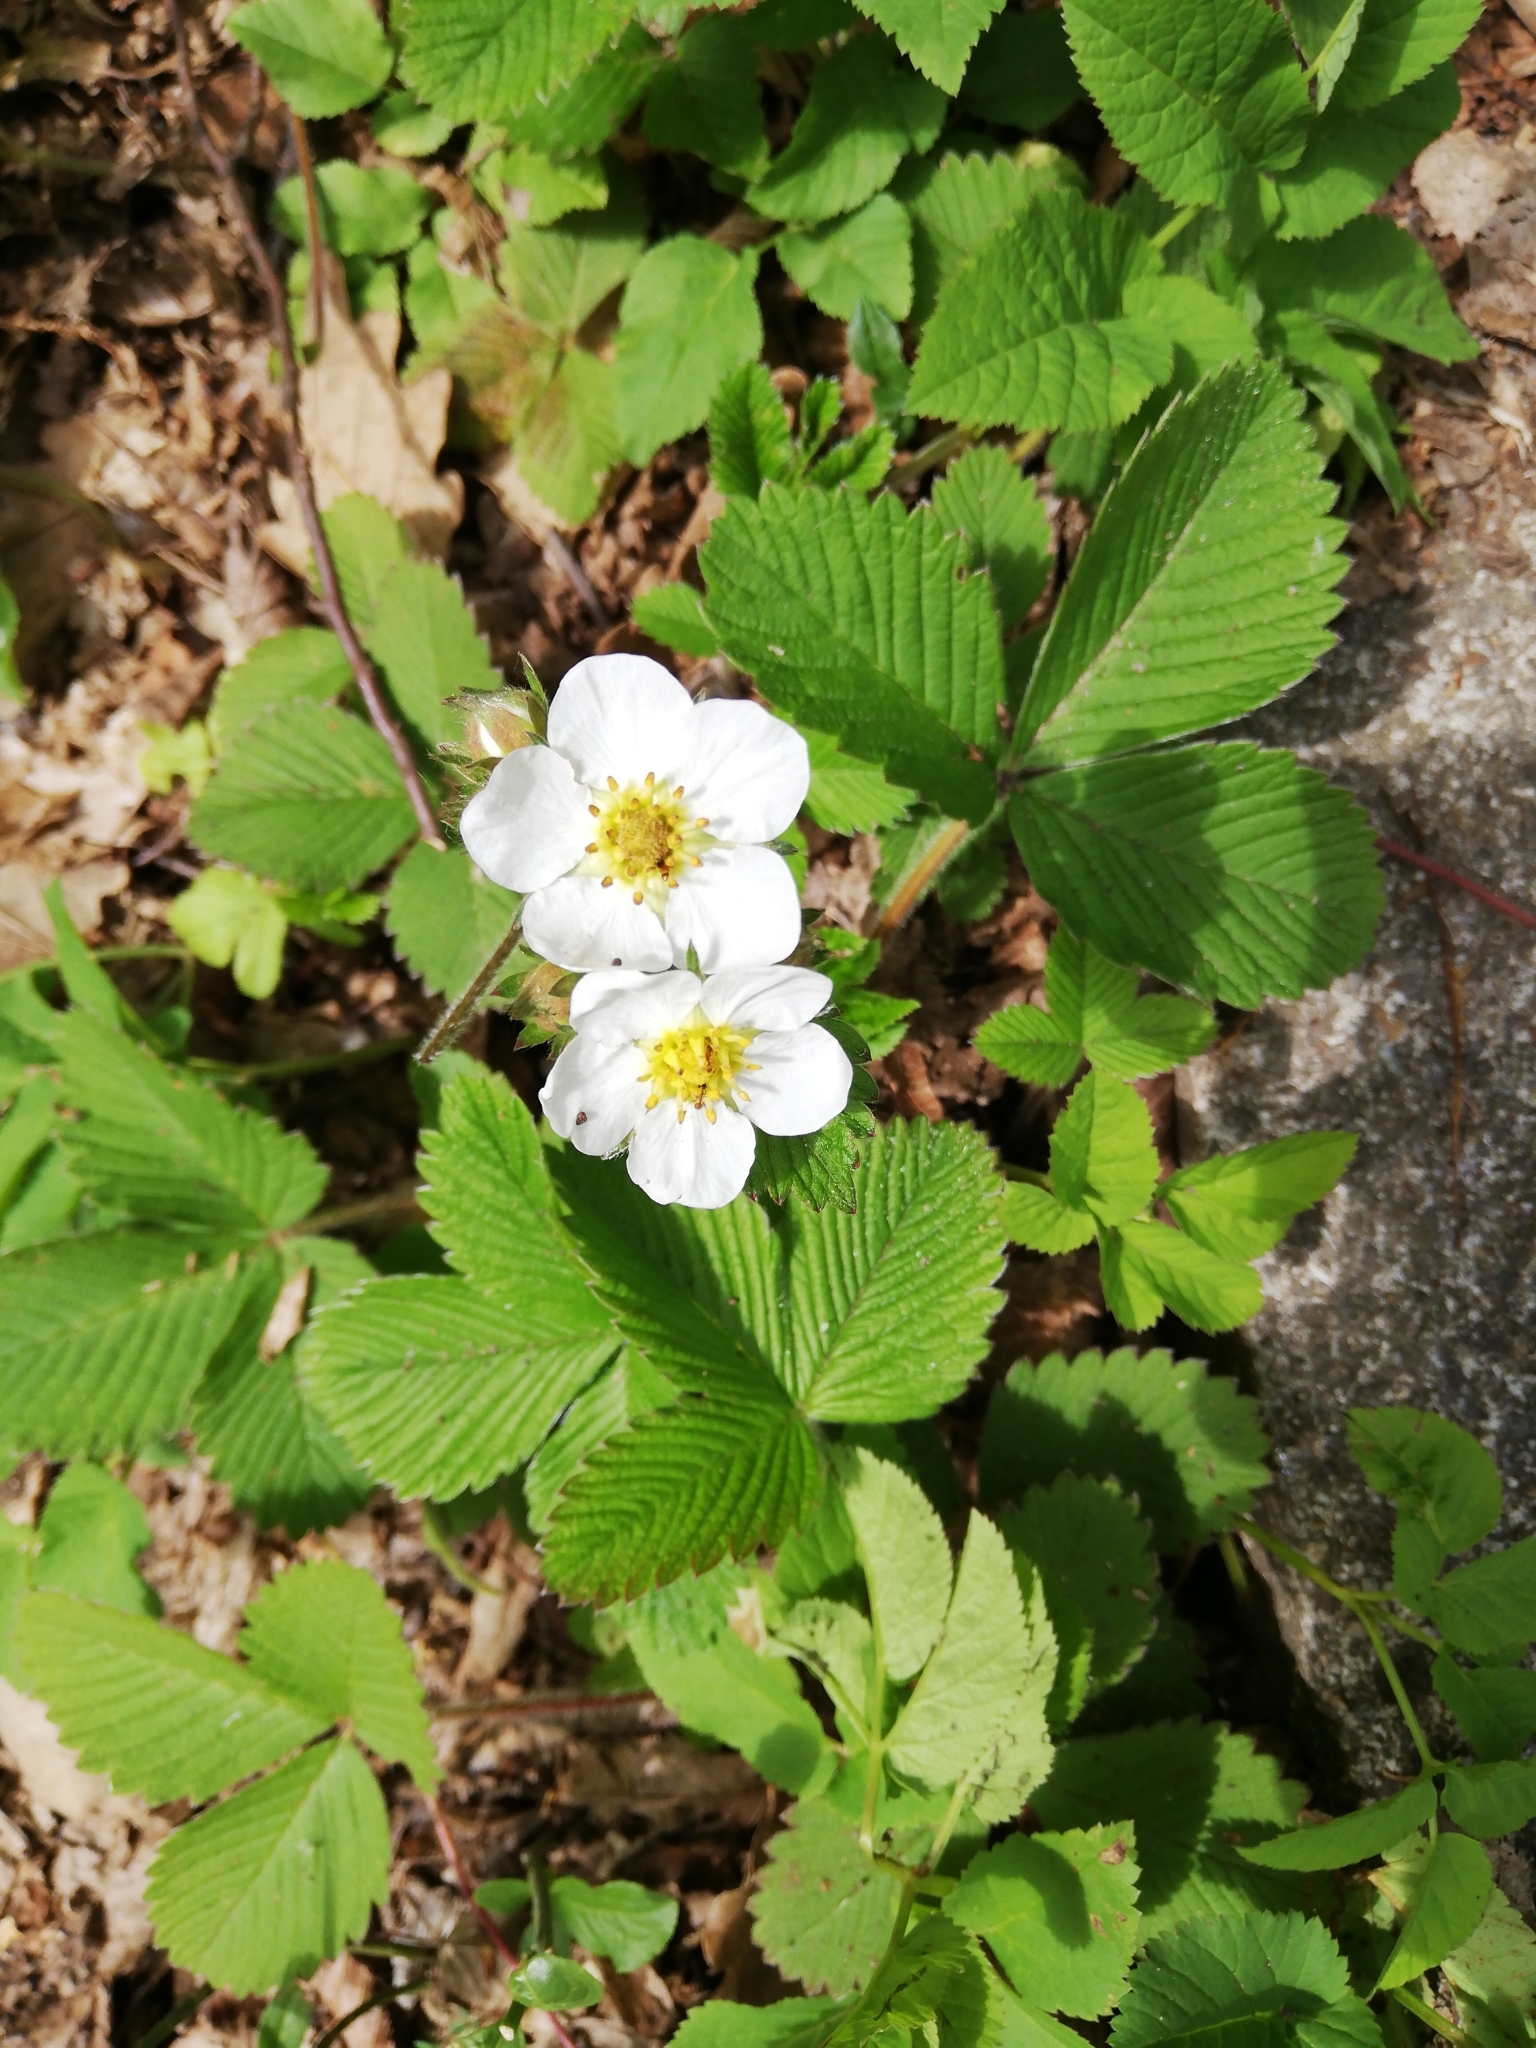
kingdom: Plantae
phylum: Tracheophyta
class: Magnoliopsida
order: Rosales
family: Rosaceae
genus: Fragaria
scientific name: Fragaria vesca
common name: Wild strawberry
